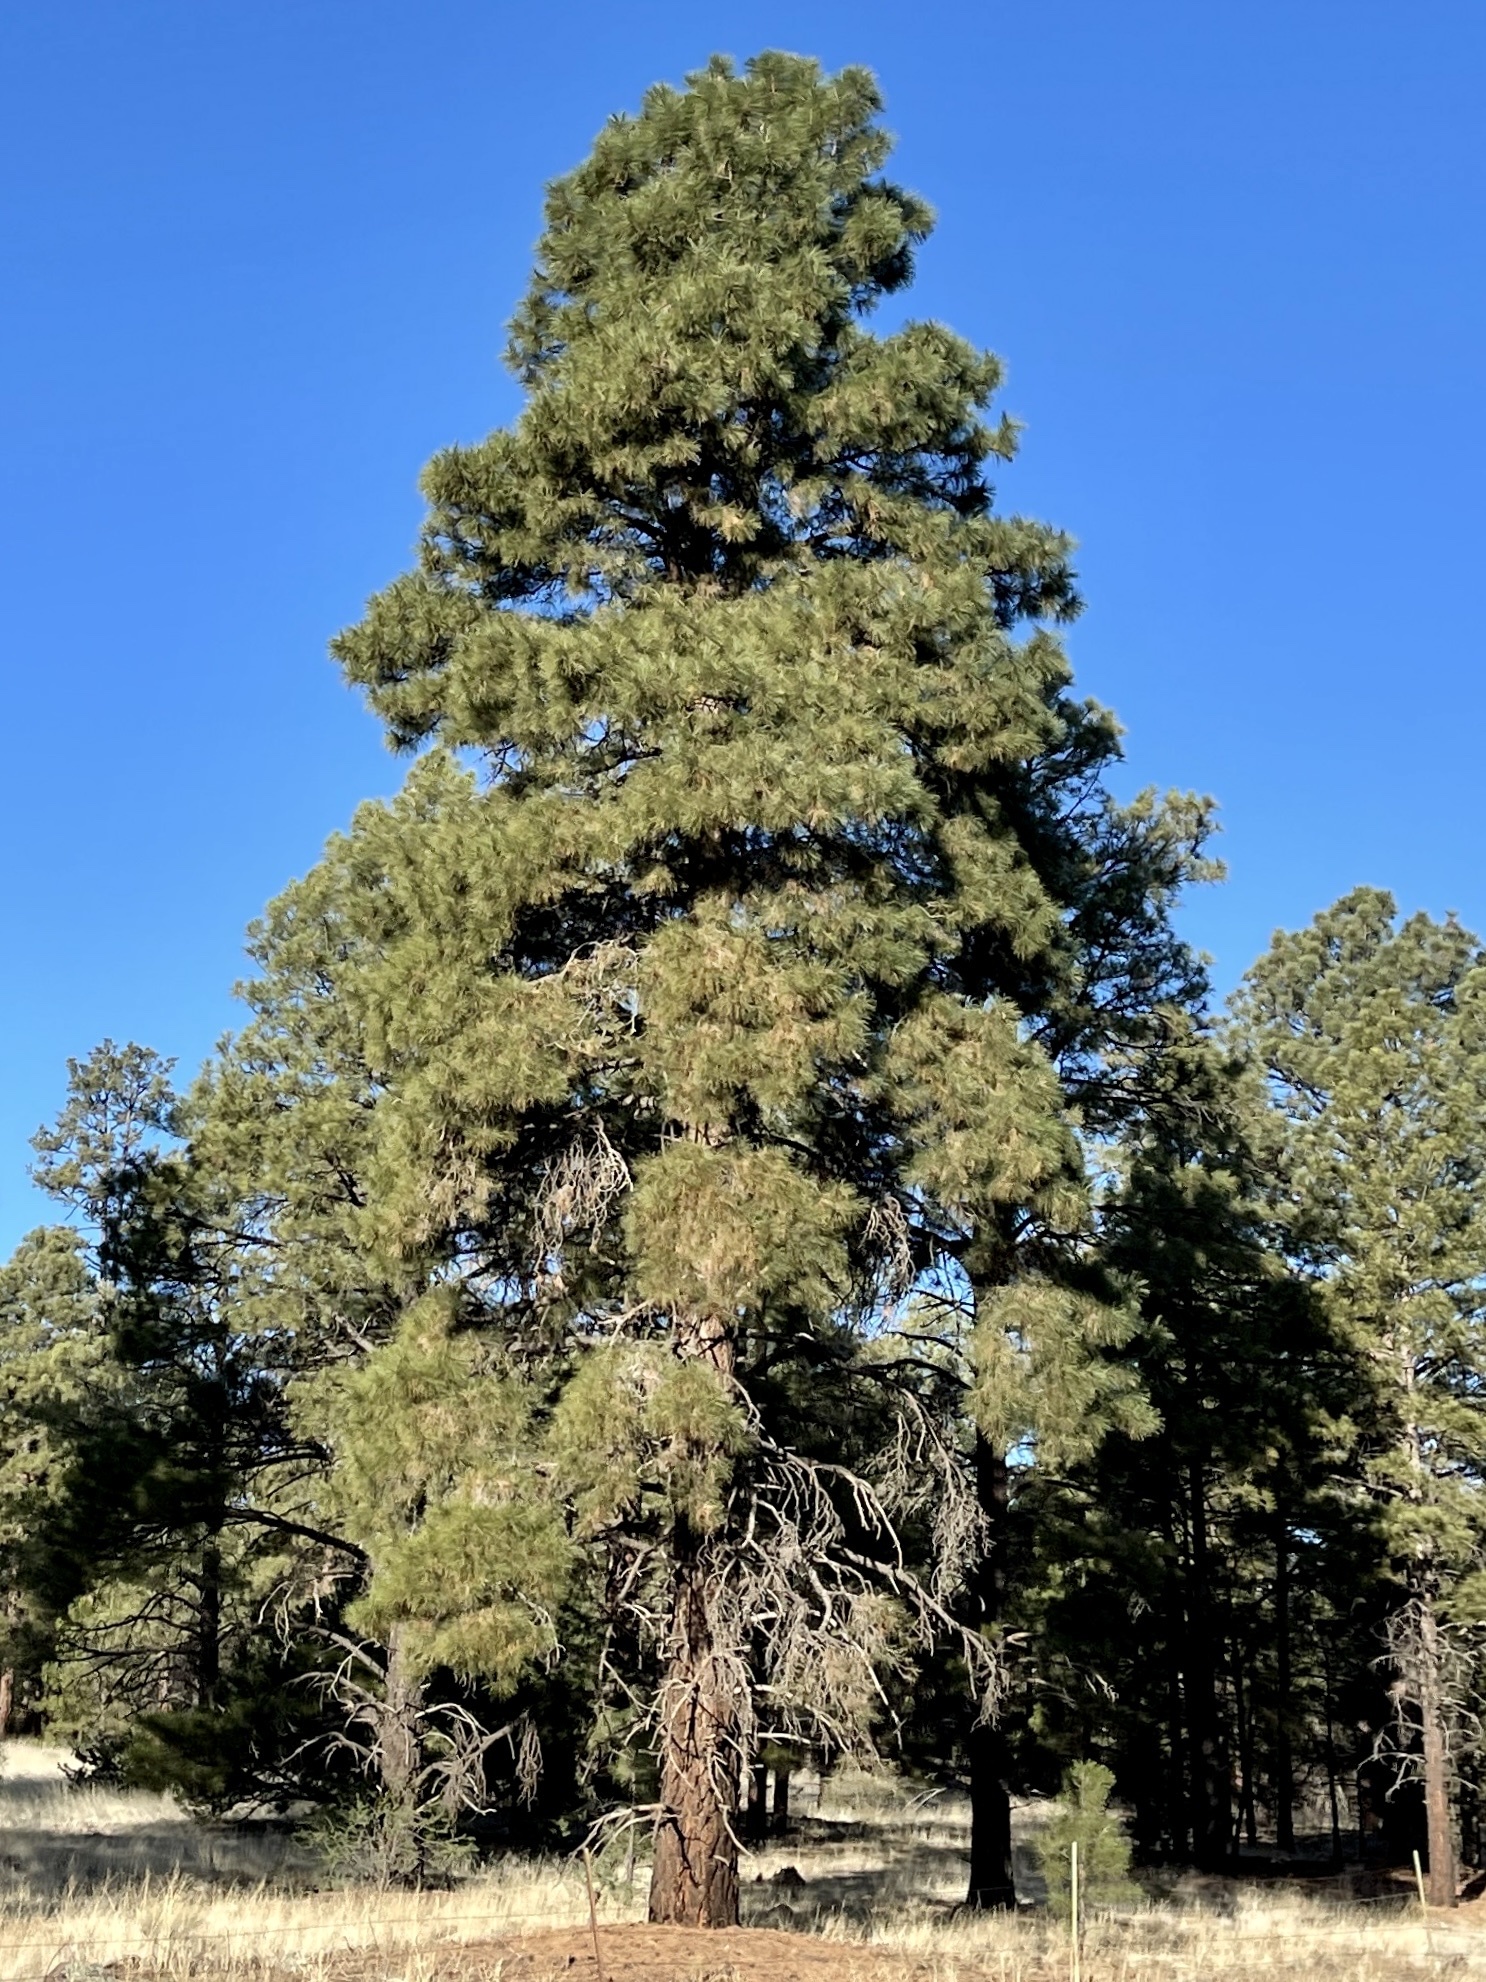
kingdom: Plantae
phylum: Tracheophyta
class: Pinopsida
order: Pinales
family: Pinaceae
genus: Pinus
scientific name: Pinus ponderosa
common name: Western yellow-pine
